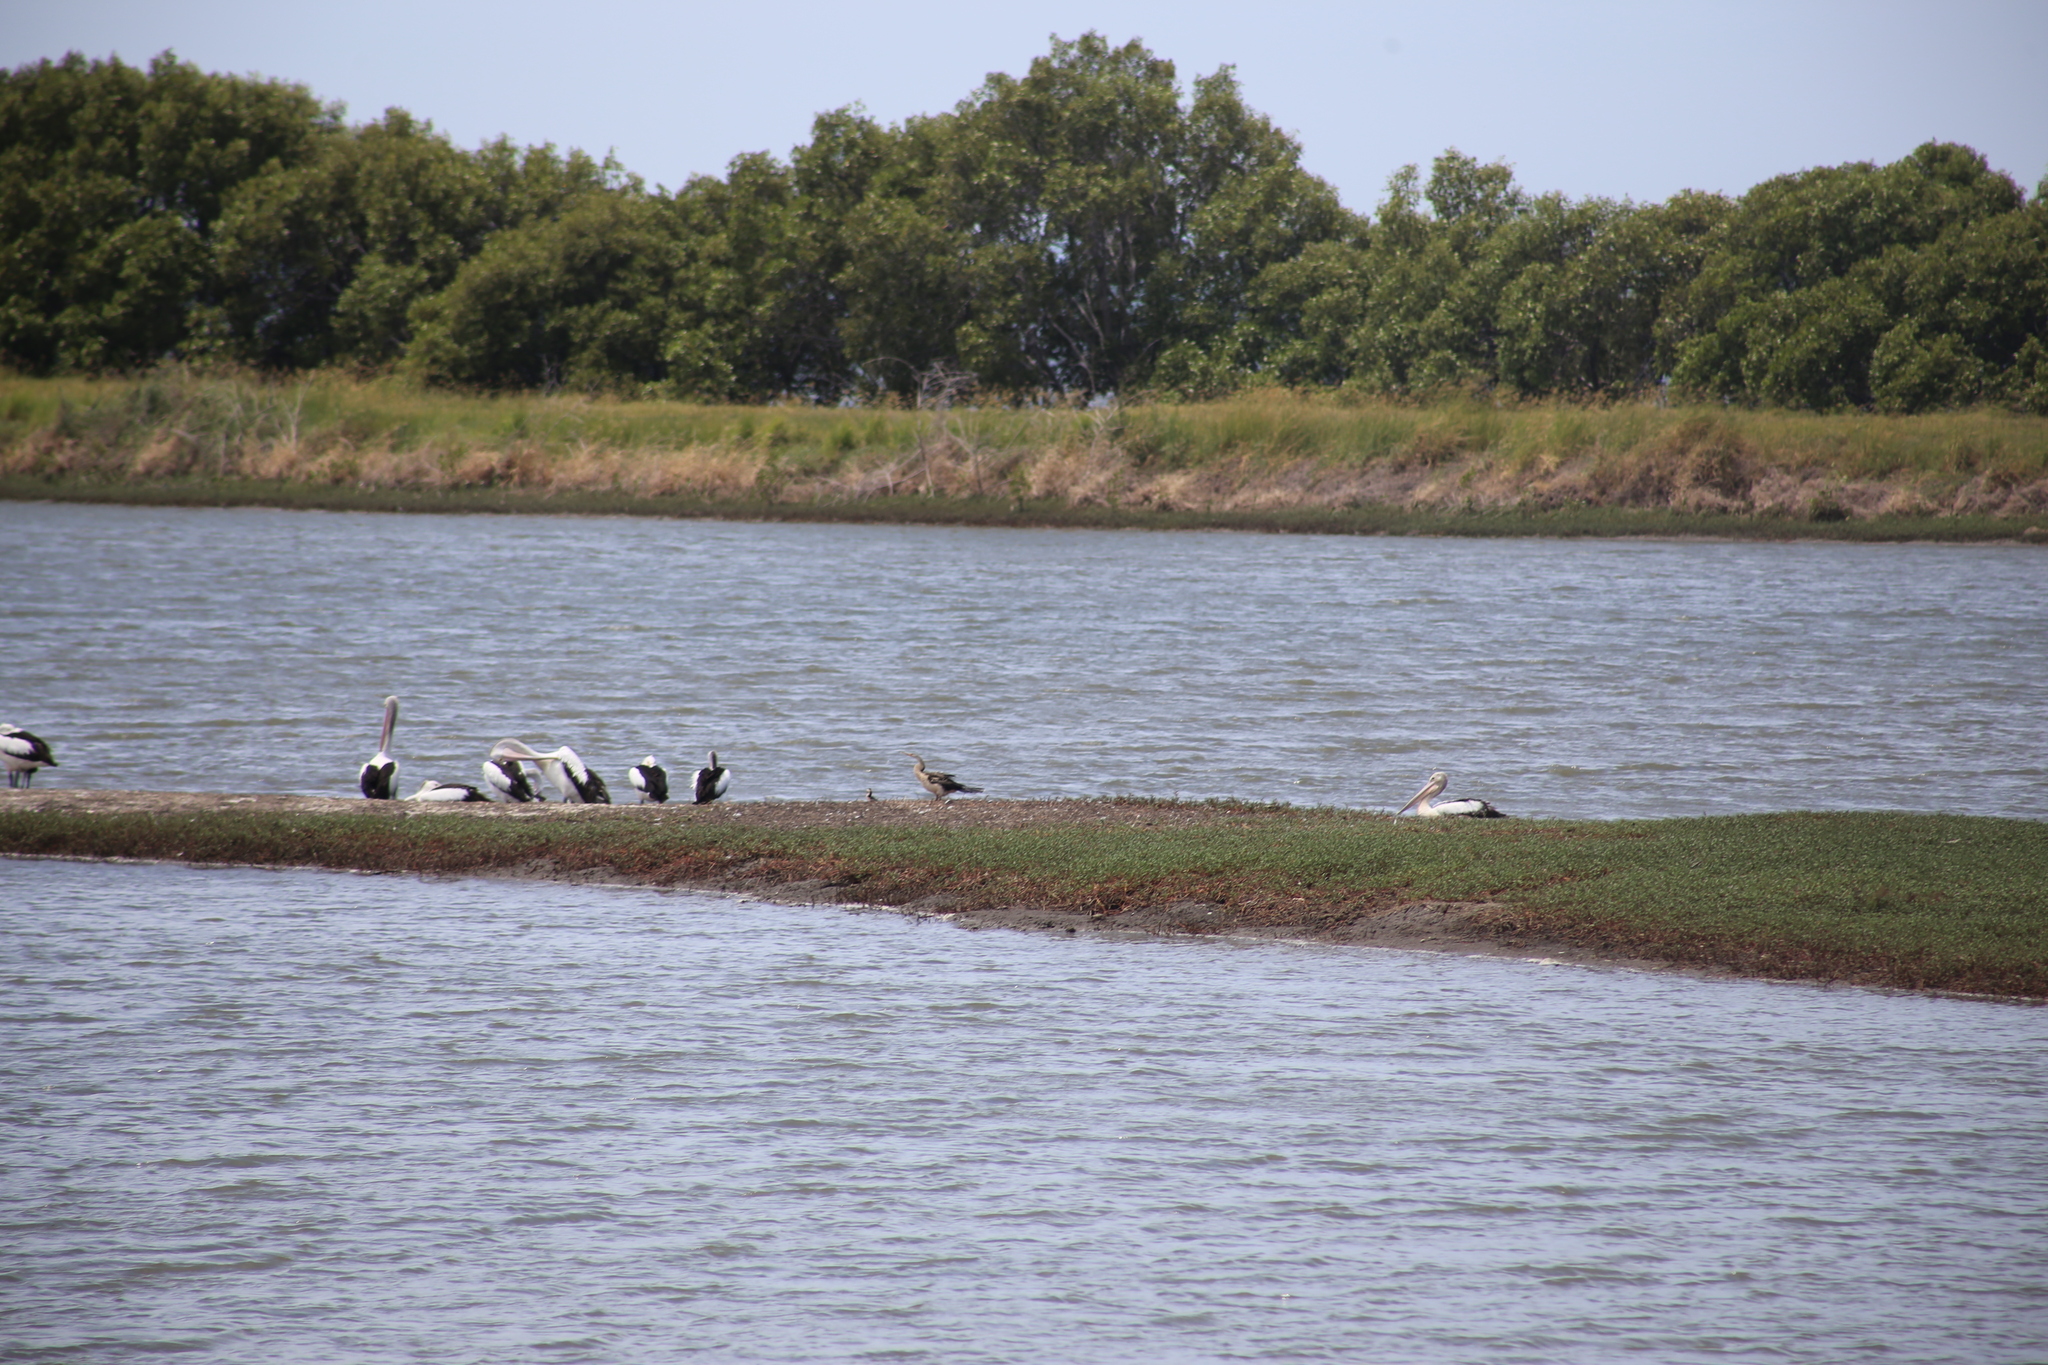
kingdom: Animalia
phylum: Chordata
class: Aves
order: Suliformes
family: Anhingidae
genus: Anhinga
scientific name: Anhinga novaehollandiae
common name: Australasian darter
